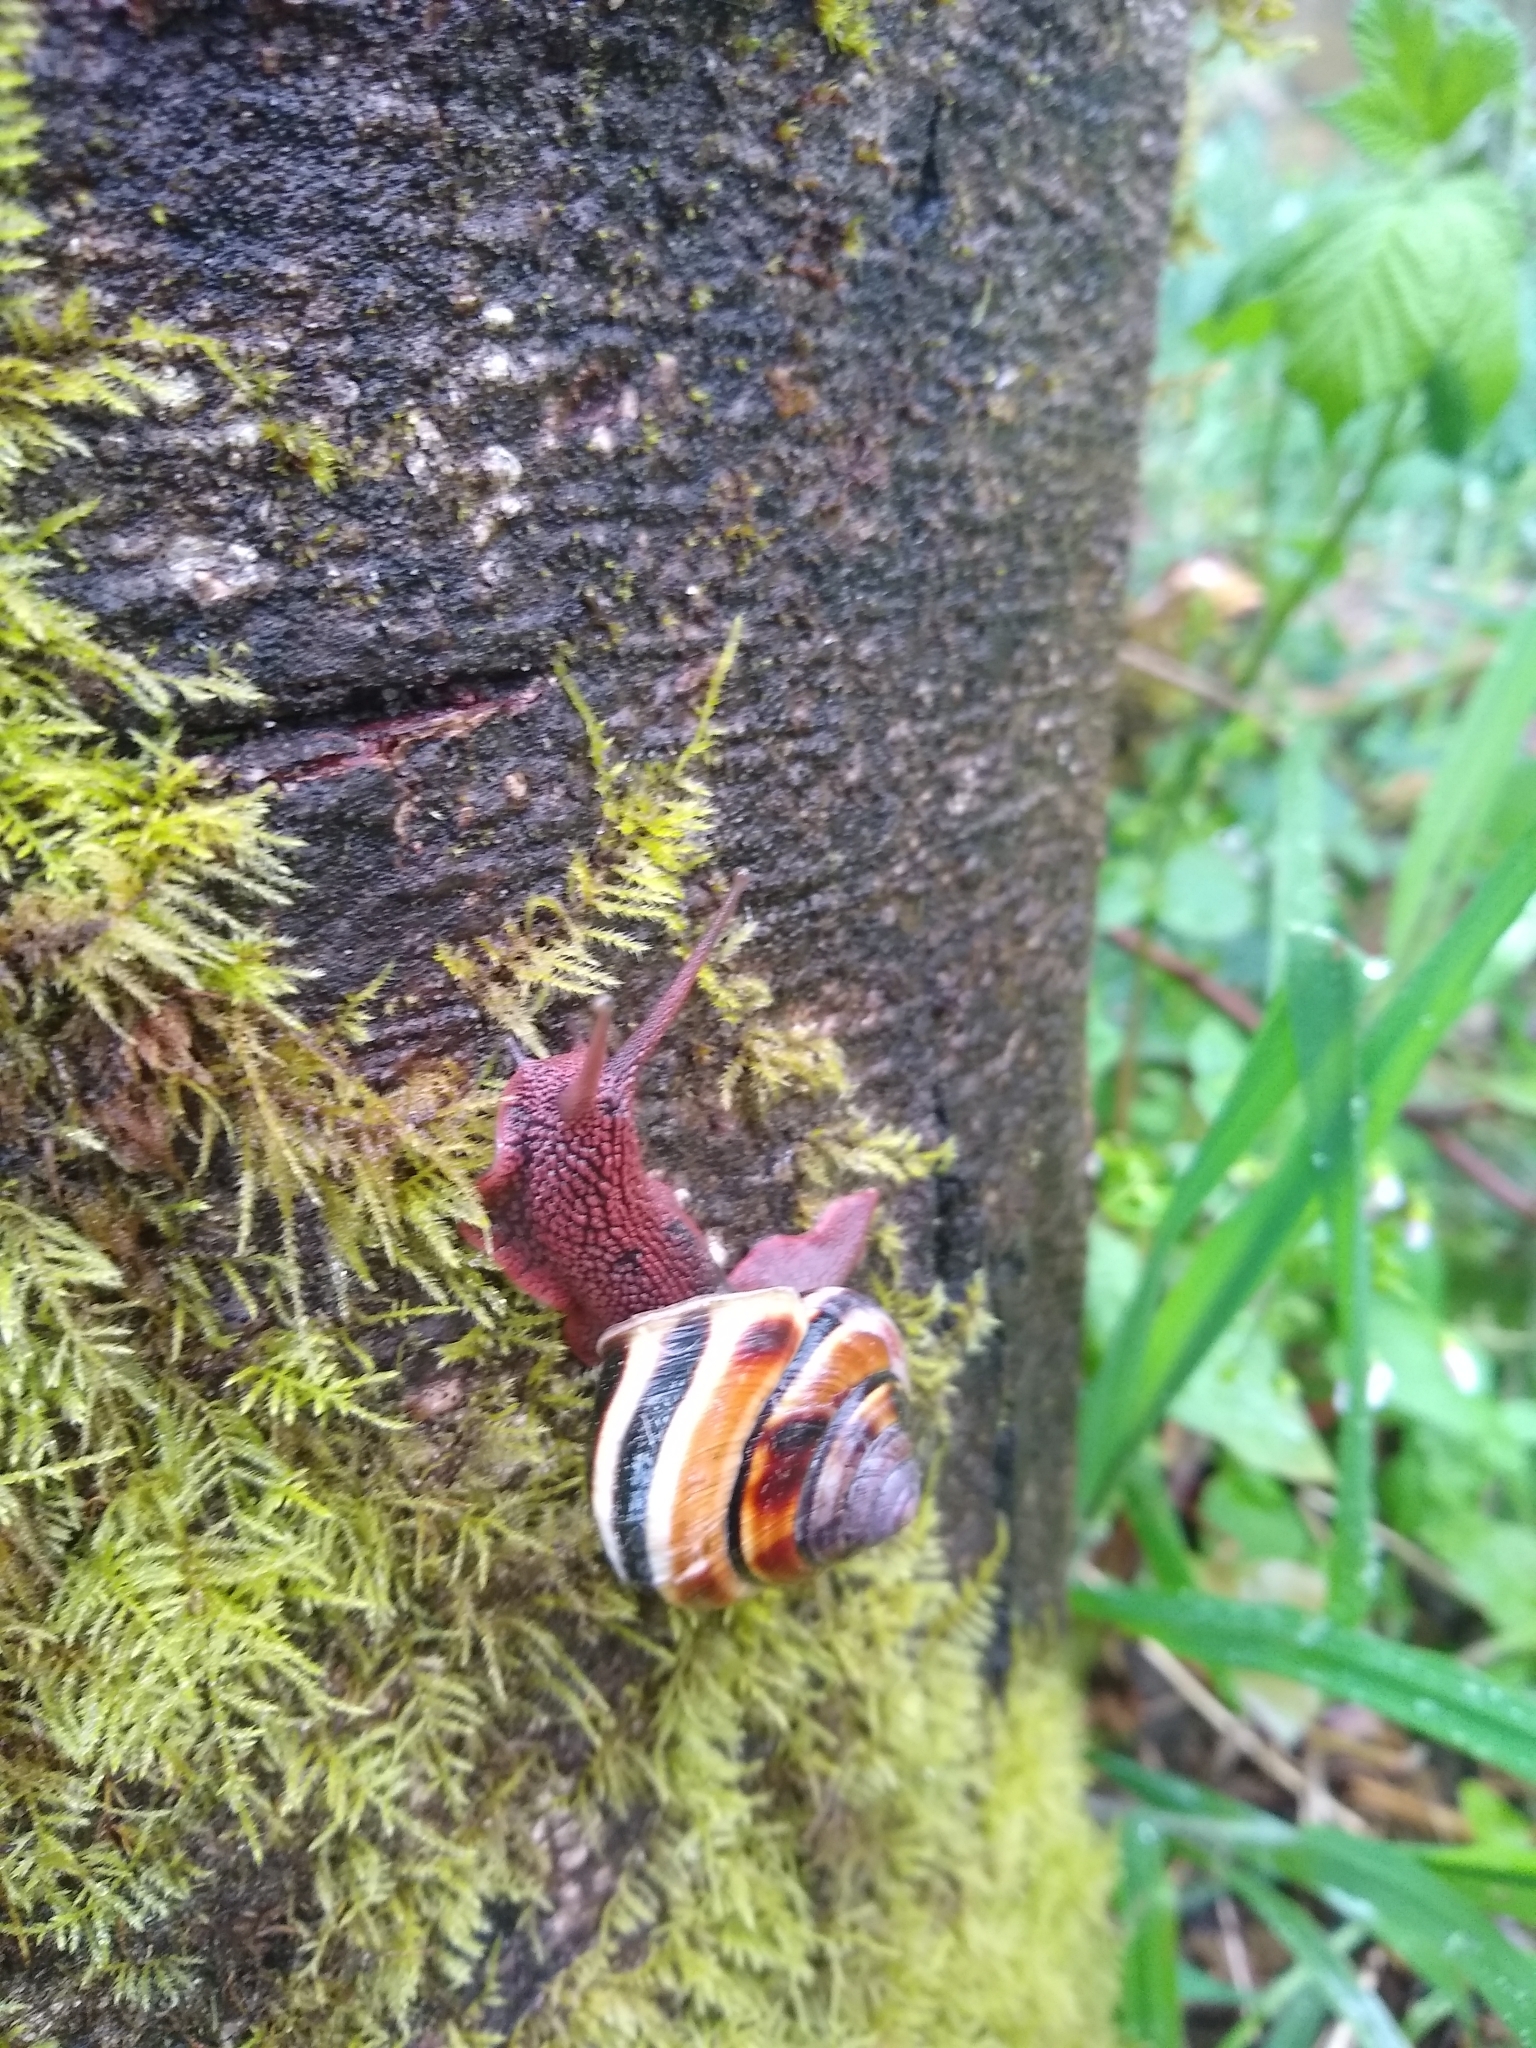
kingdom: Animalia
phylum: Mollusca
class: Gastropoda
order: Stylommatophora
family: Xanthonychidae
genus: Monadenia
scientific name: Monadenia fidelis
